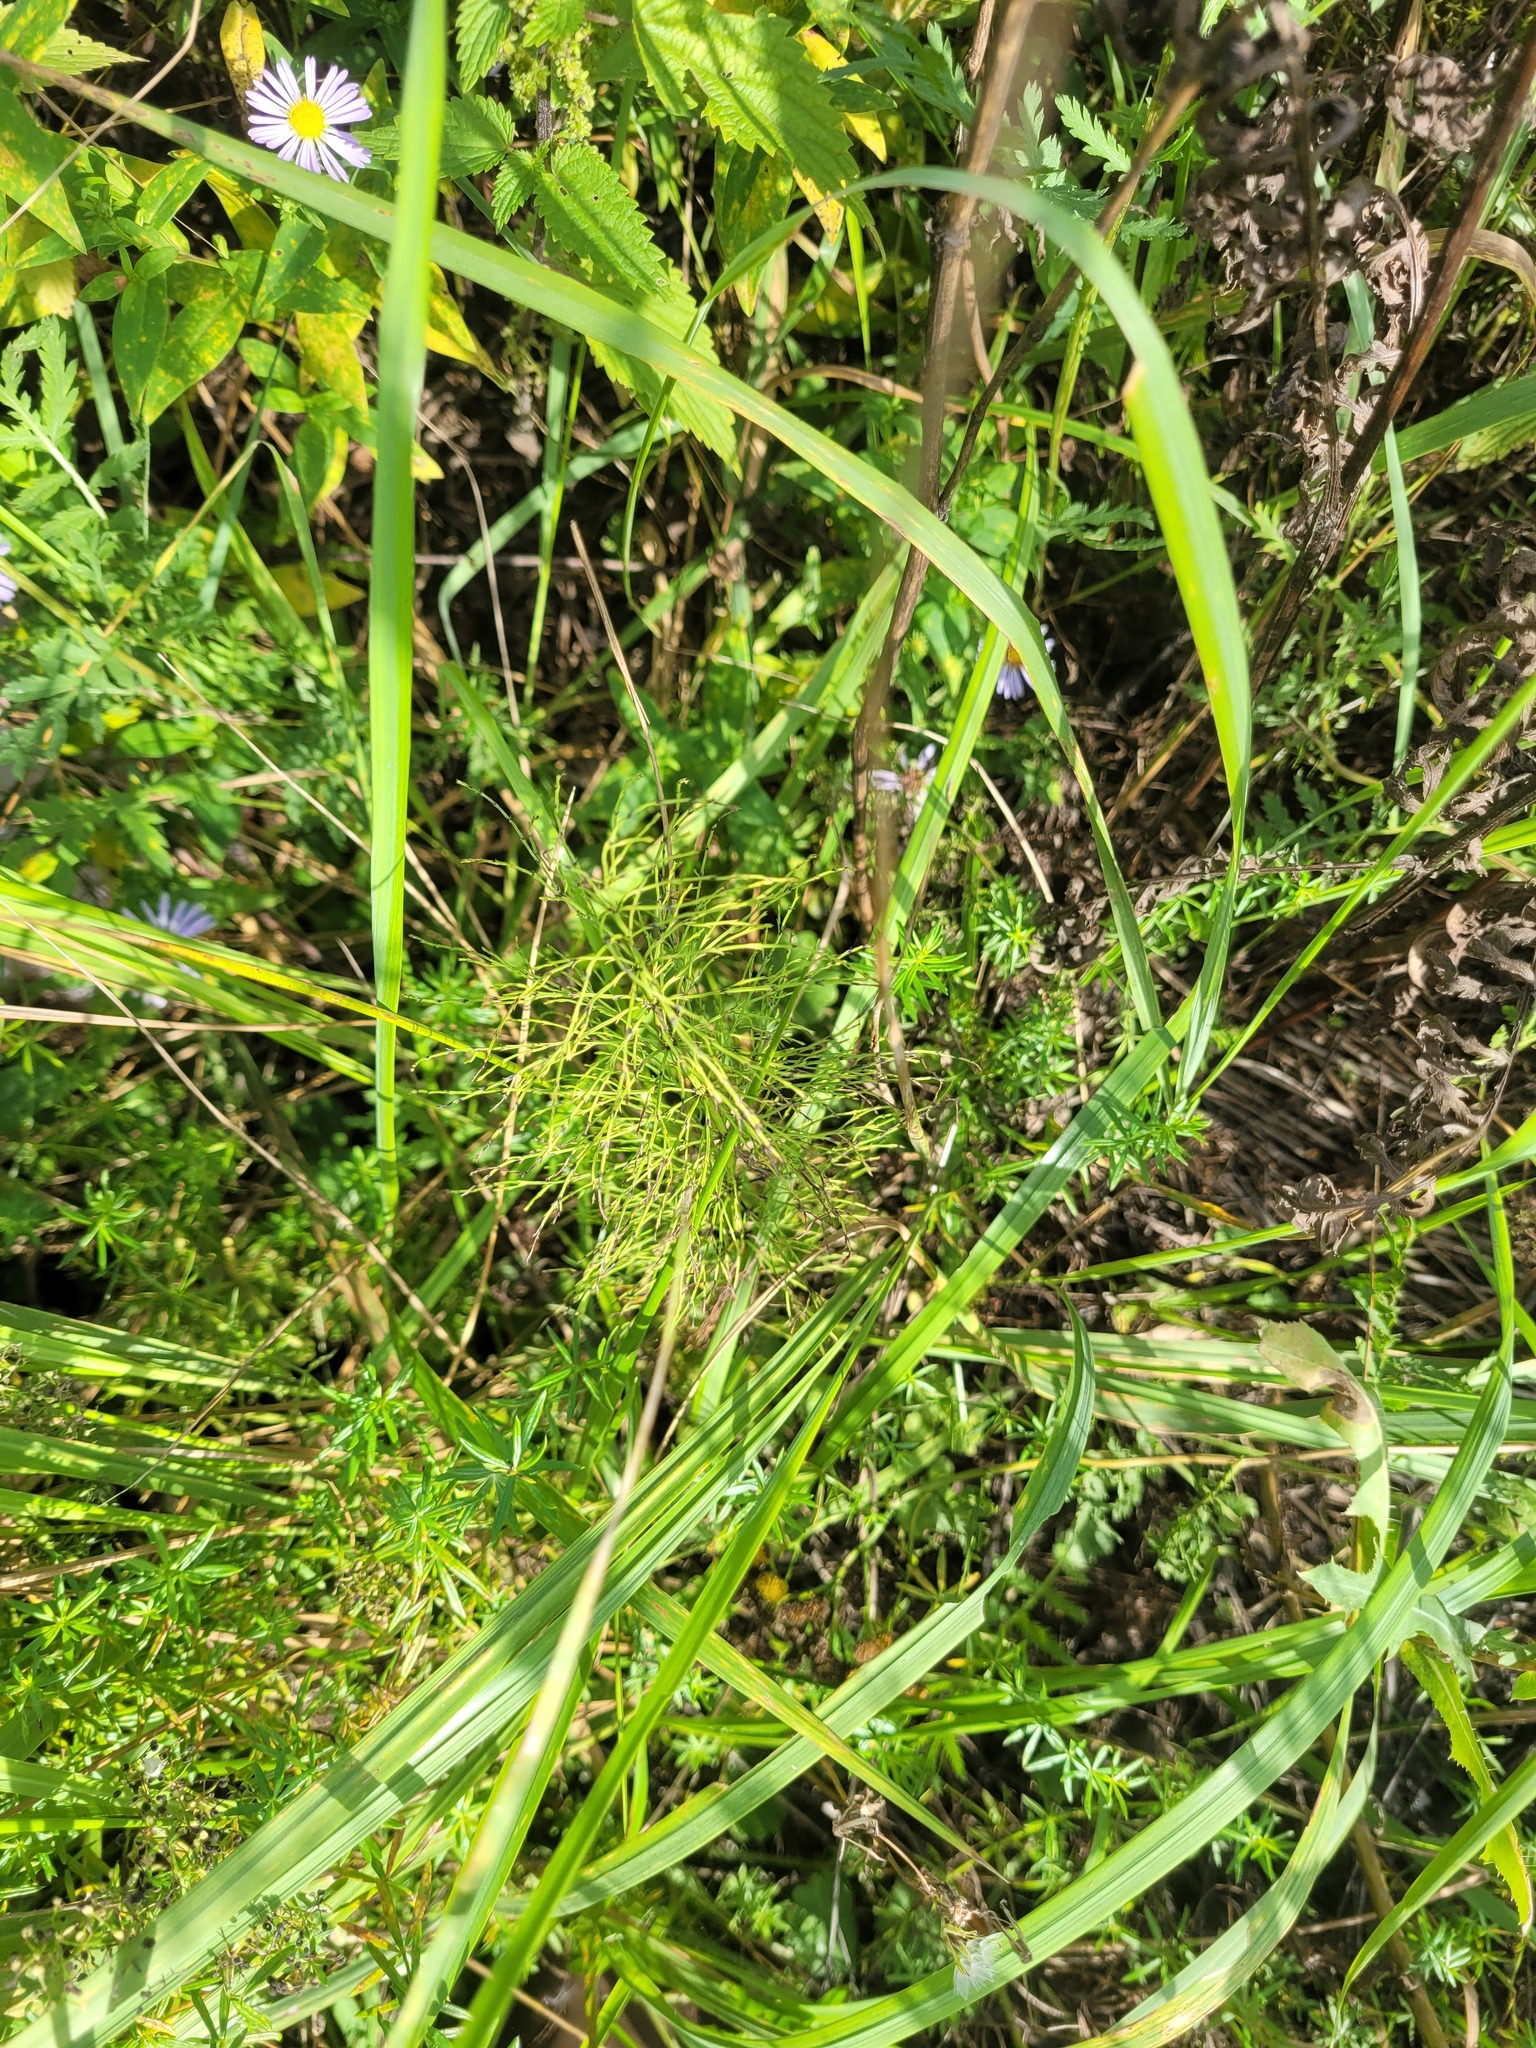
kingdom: Plantae
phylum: Tracheophyta
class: Polypodiopsida
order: Equisetales
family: Equisetaceae
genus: Equisetum
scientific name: Equisetum sylvaticum
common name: Wood horsetail
